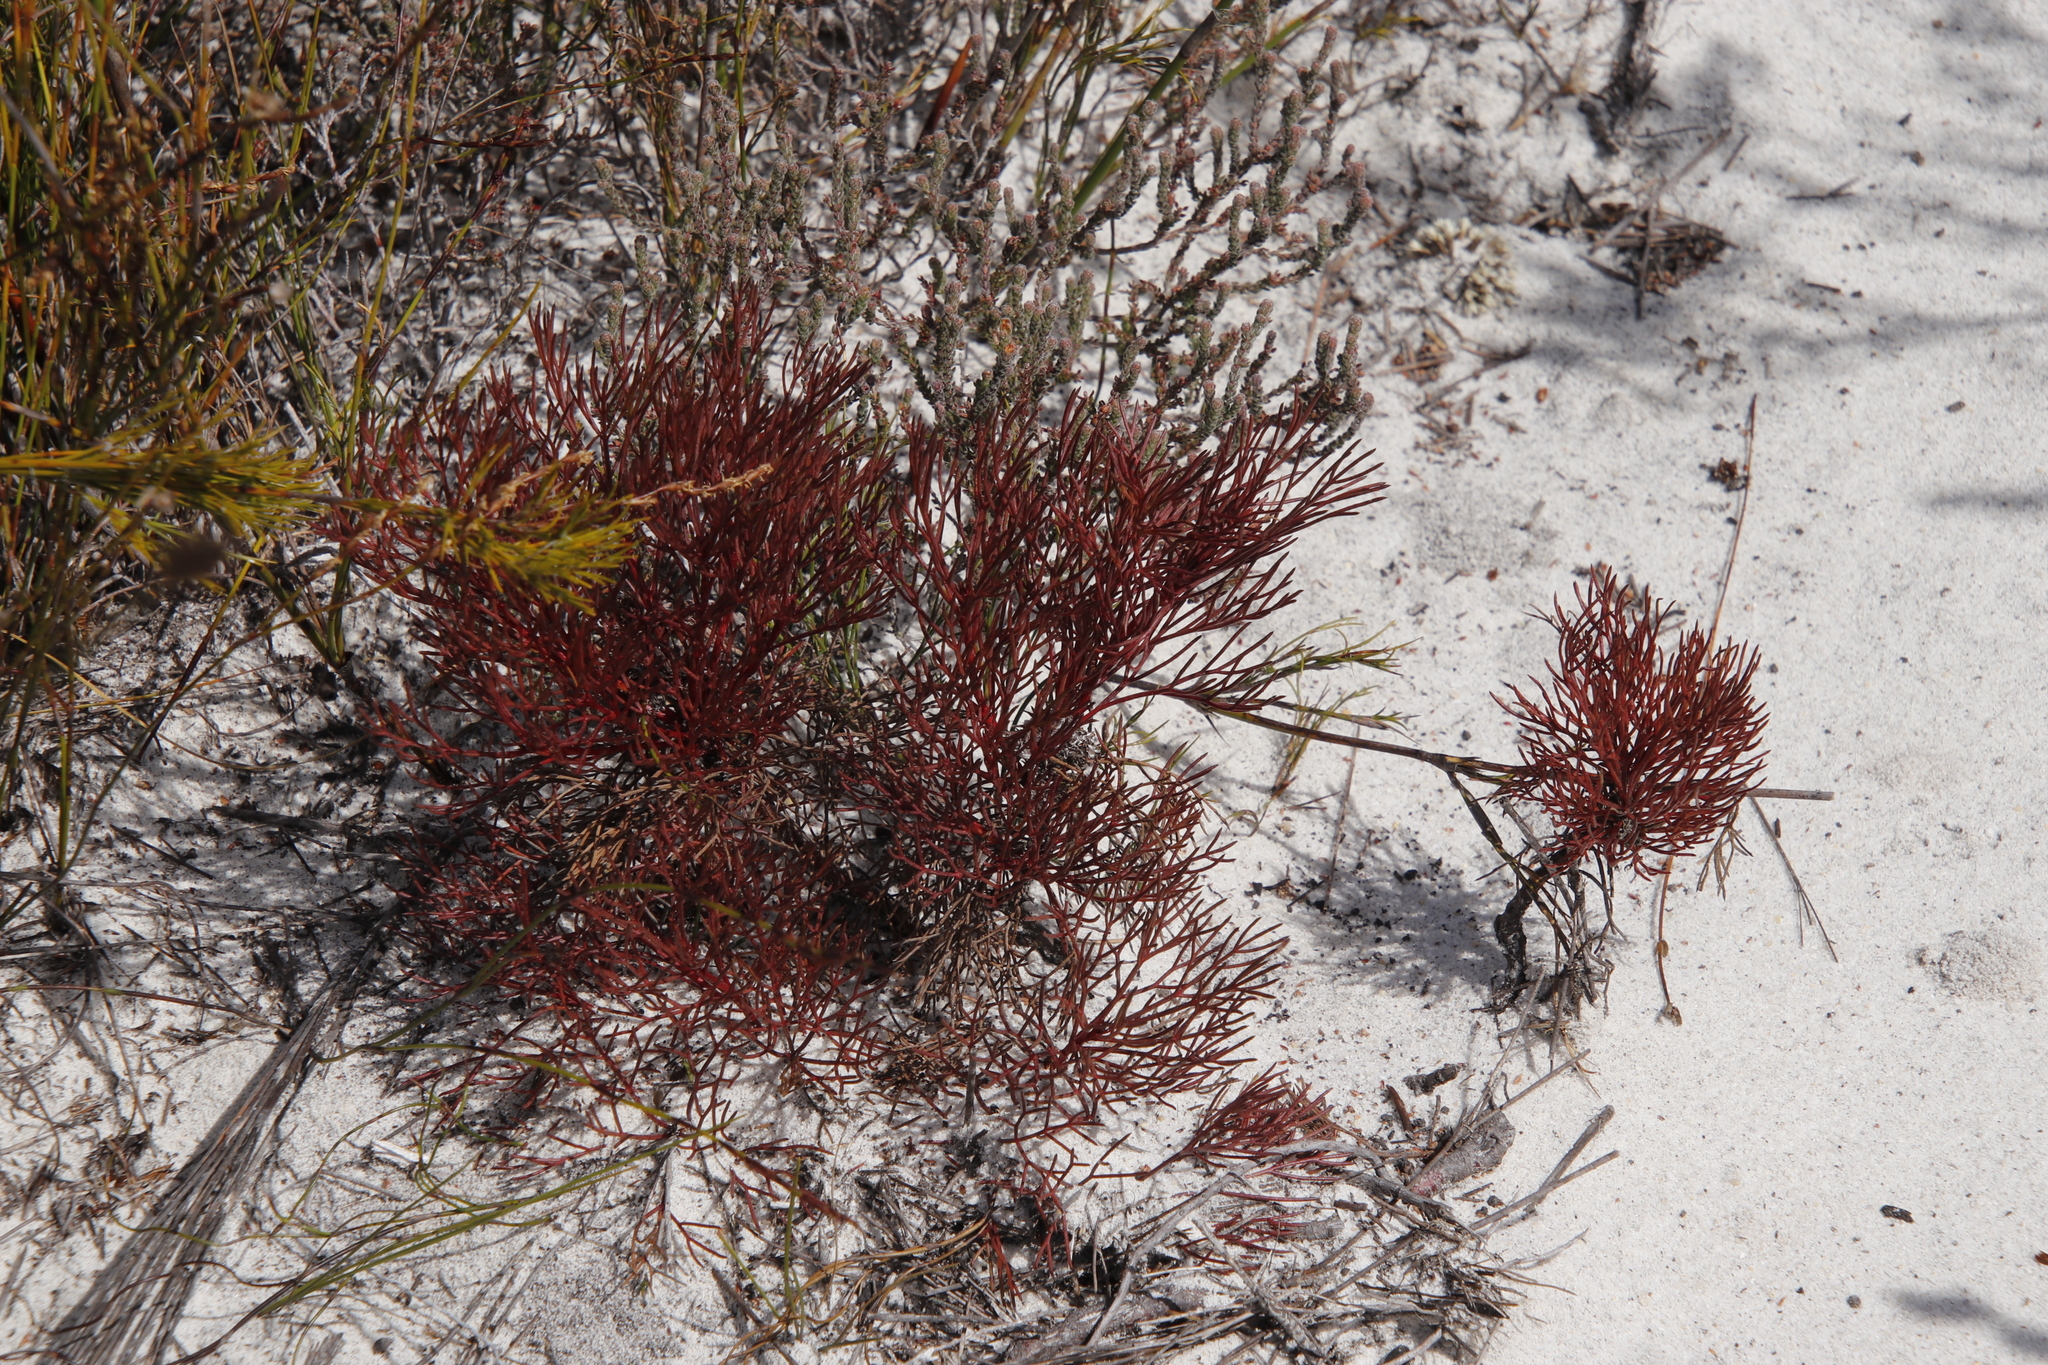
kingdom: Plantae
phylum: Tracheophyta
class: Magnoliopsida
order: Proteales
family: Proteaceae
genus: Serruria
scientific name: Serruria fasciflora
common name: Common pin spiderhead
